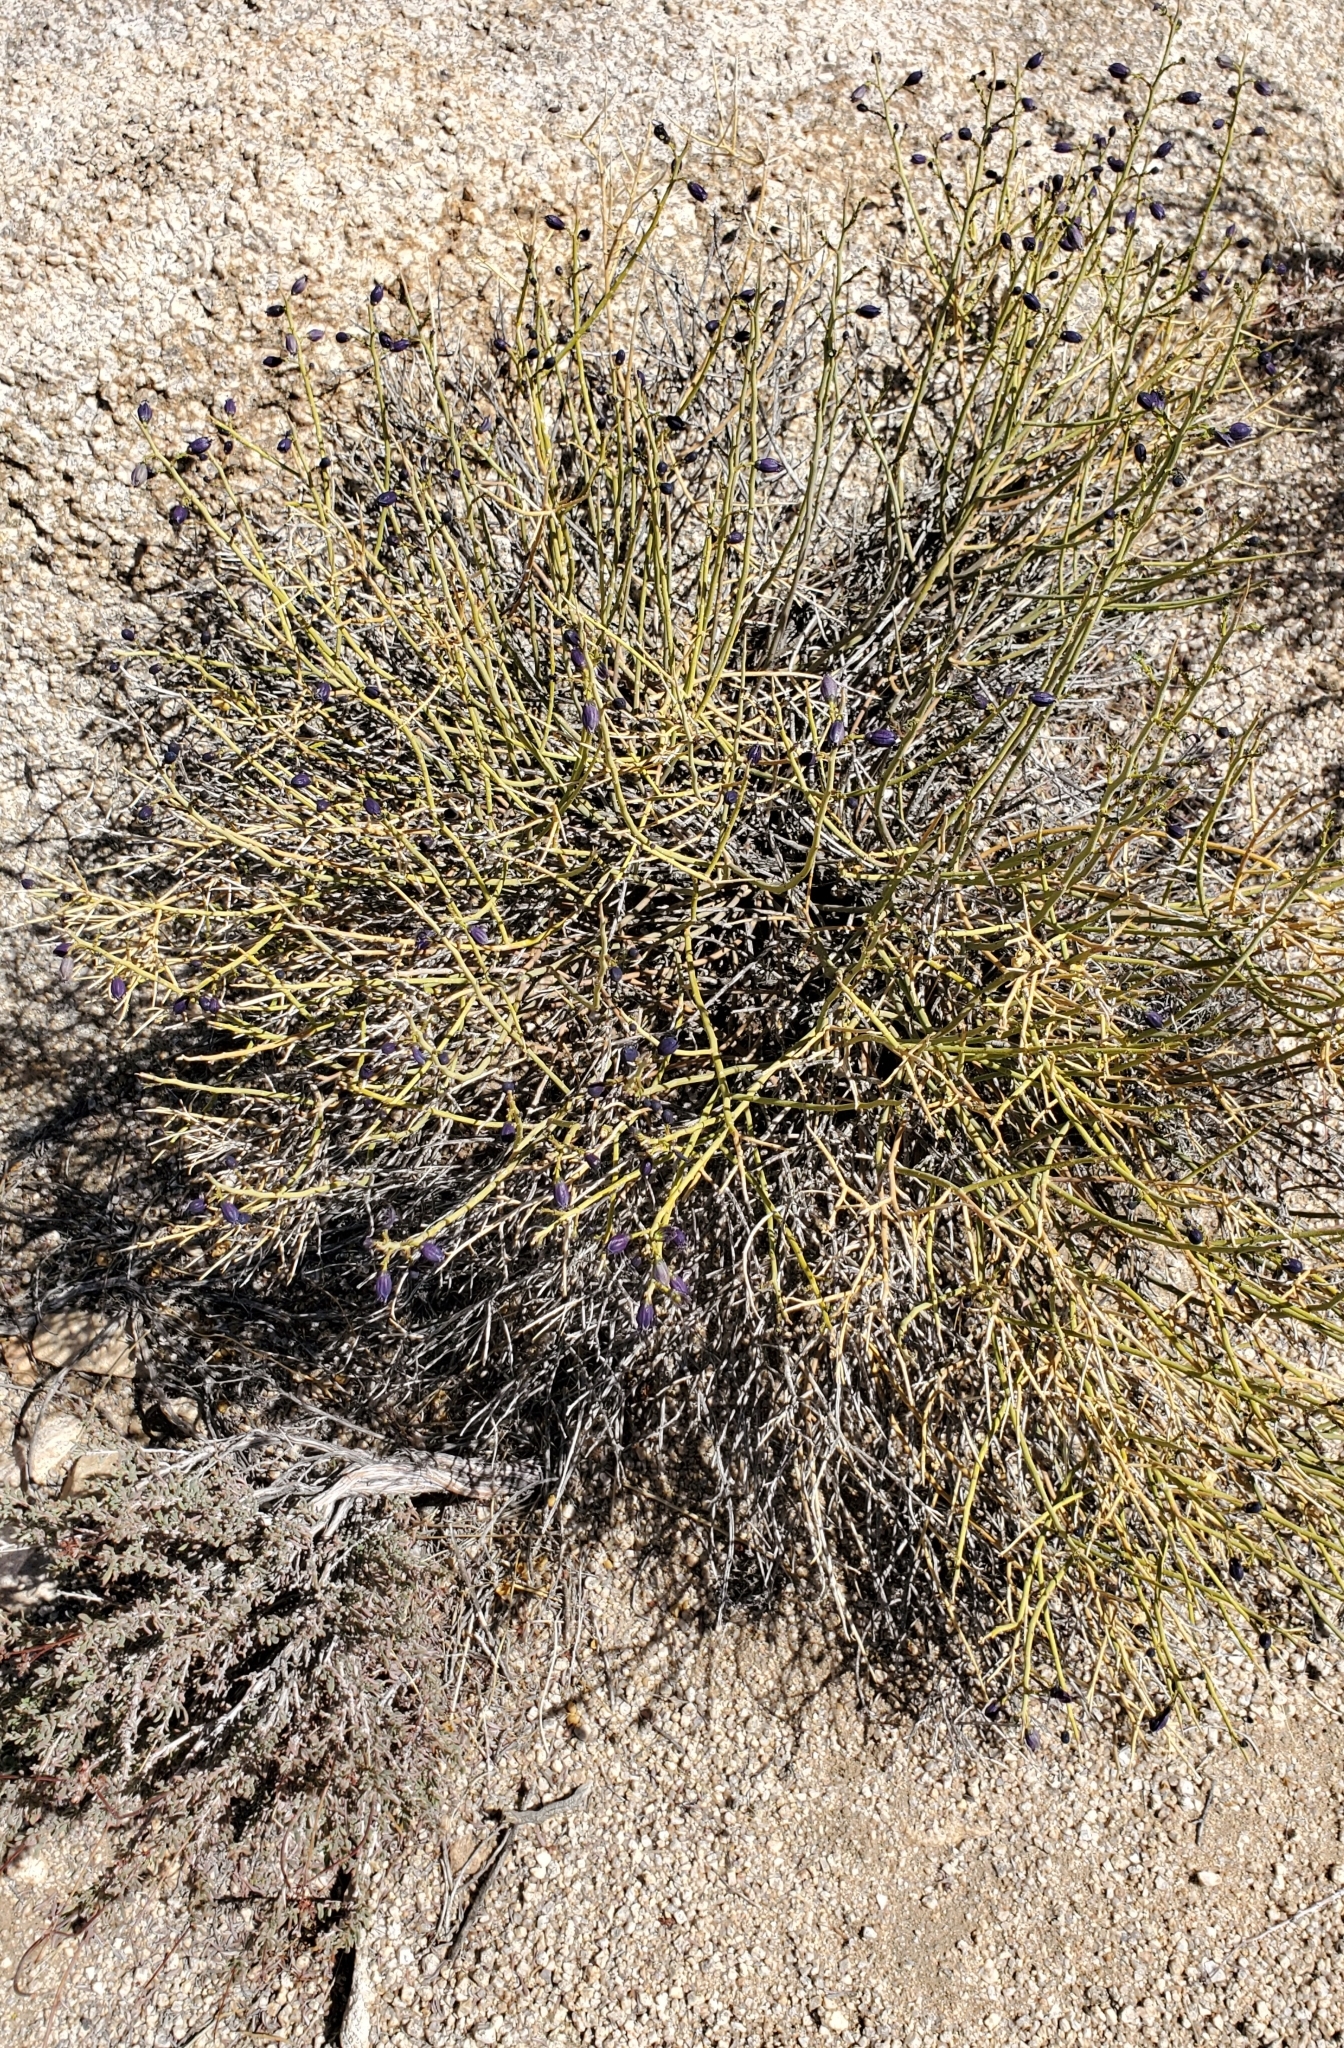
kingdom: Plantae
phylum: Tracheophyta
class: Magnoliopsida
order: Sapindales
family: Rutaceae
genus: Thamnosma
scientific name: Thamnosma montana
